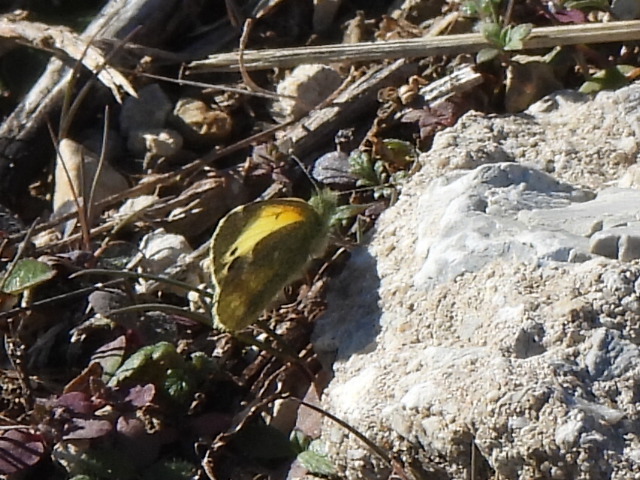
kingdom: Animalia
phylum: Arthropoda
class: Insecta
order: Lepidoptera
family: Pieridae
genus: Nathalis
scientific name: Nathalis iole
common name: Dainty sulphur
